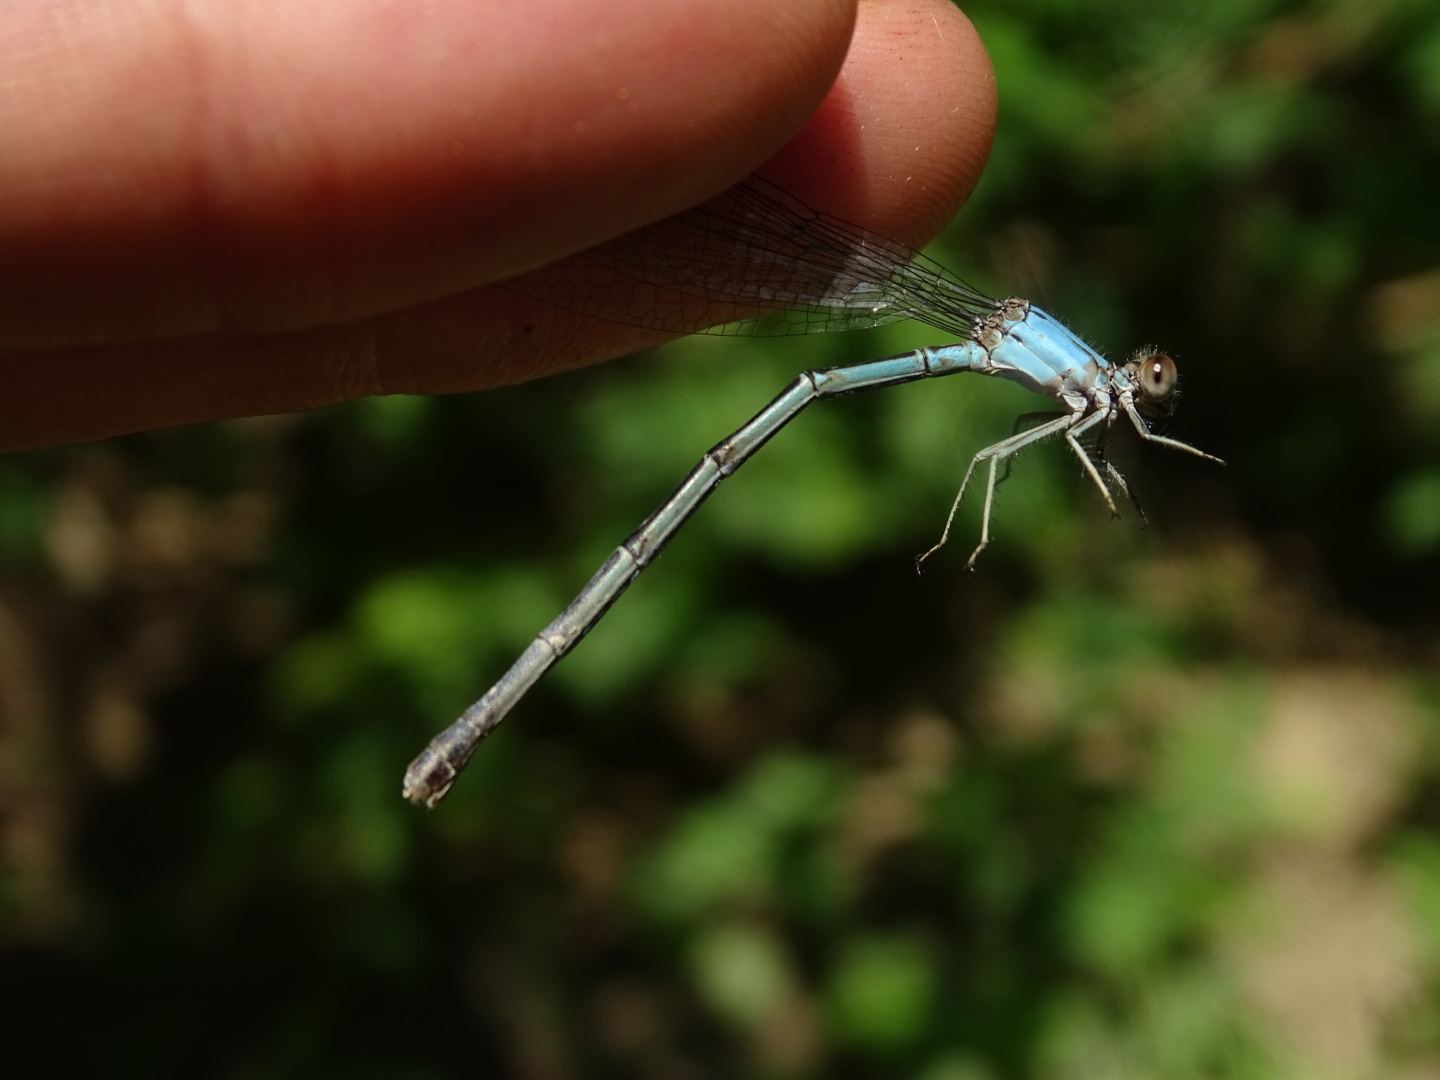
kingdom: Animalia
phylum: Arthropoda
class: Insecta
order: Odonata
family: Coenagrionidae
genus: Argia
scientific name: Argia apicalis
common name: Blue-fronted dancer
